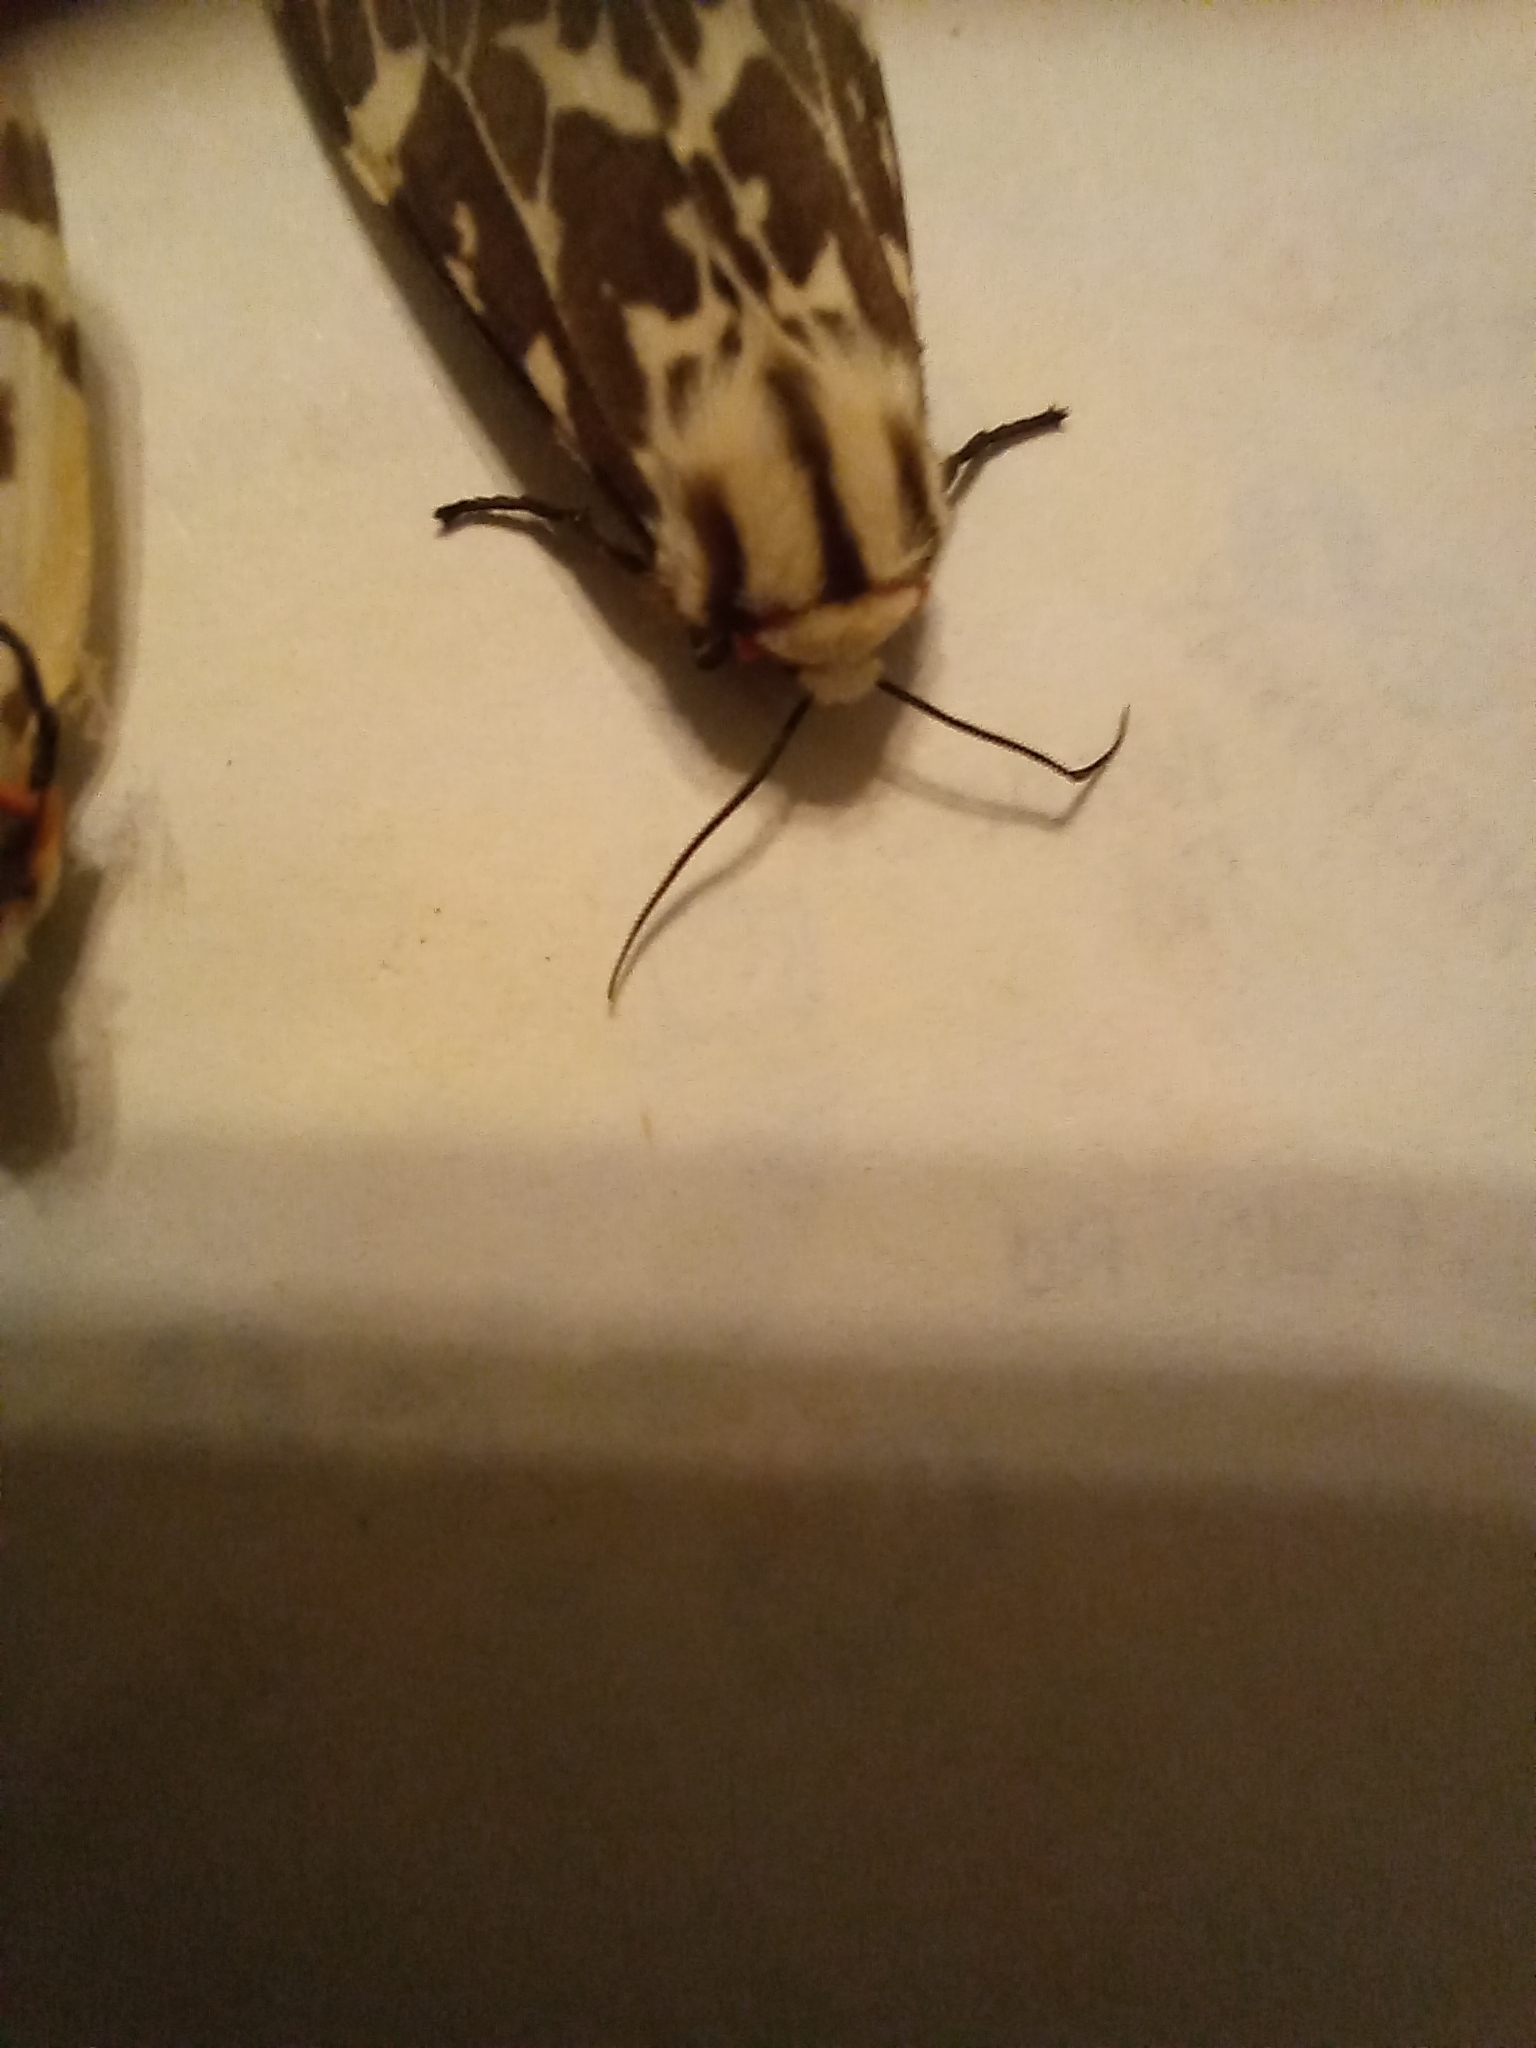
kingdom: Animalia
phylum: Arthropoda
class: Insecta
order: Lepidoptera
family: Erebidae
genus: Ardices
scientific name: Ardices glatignyi
